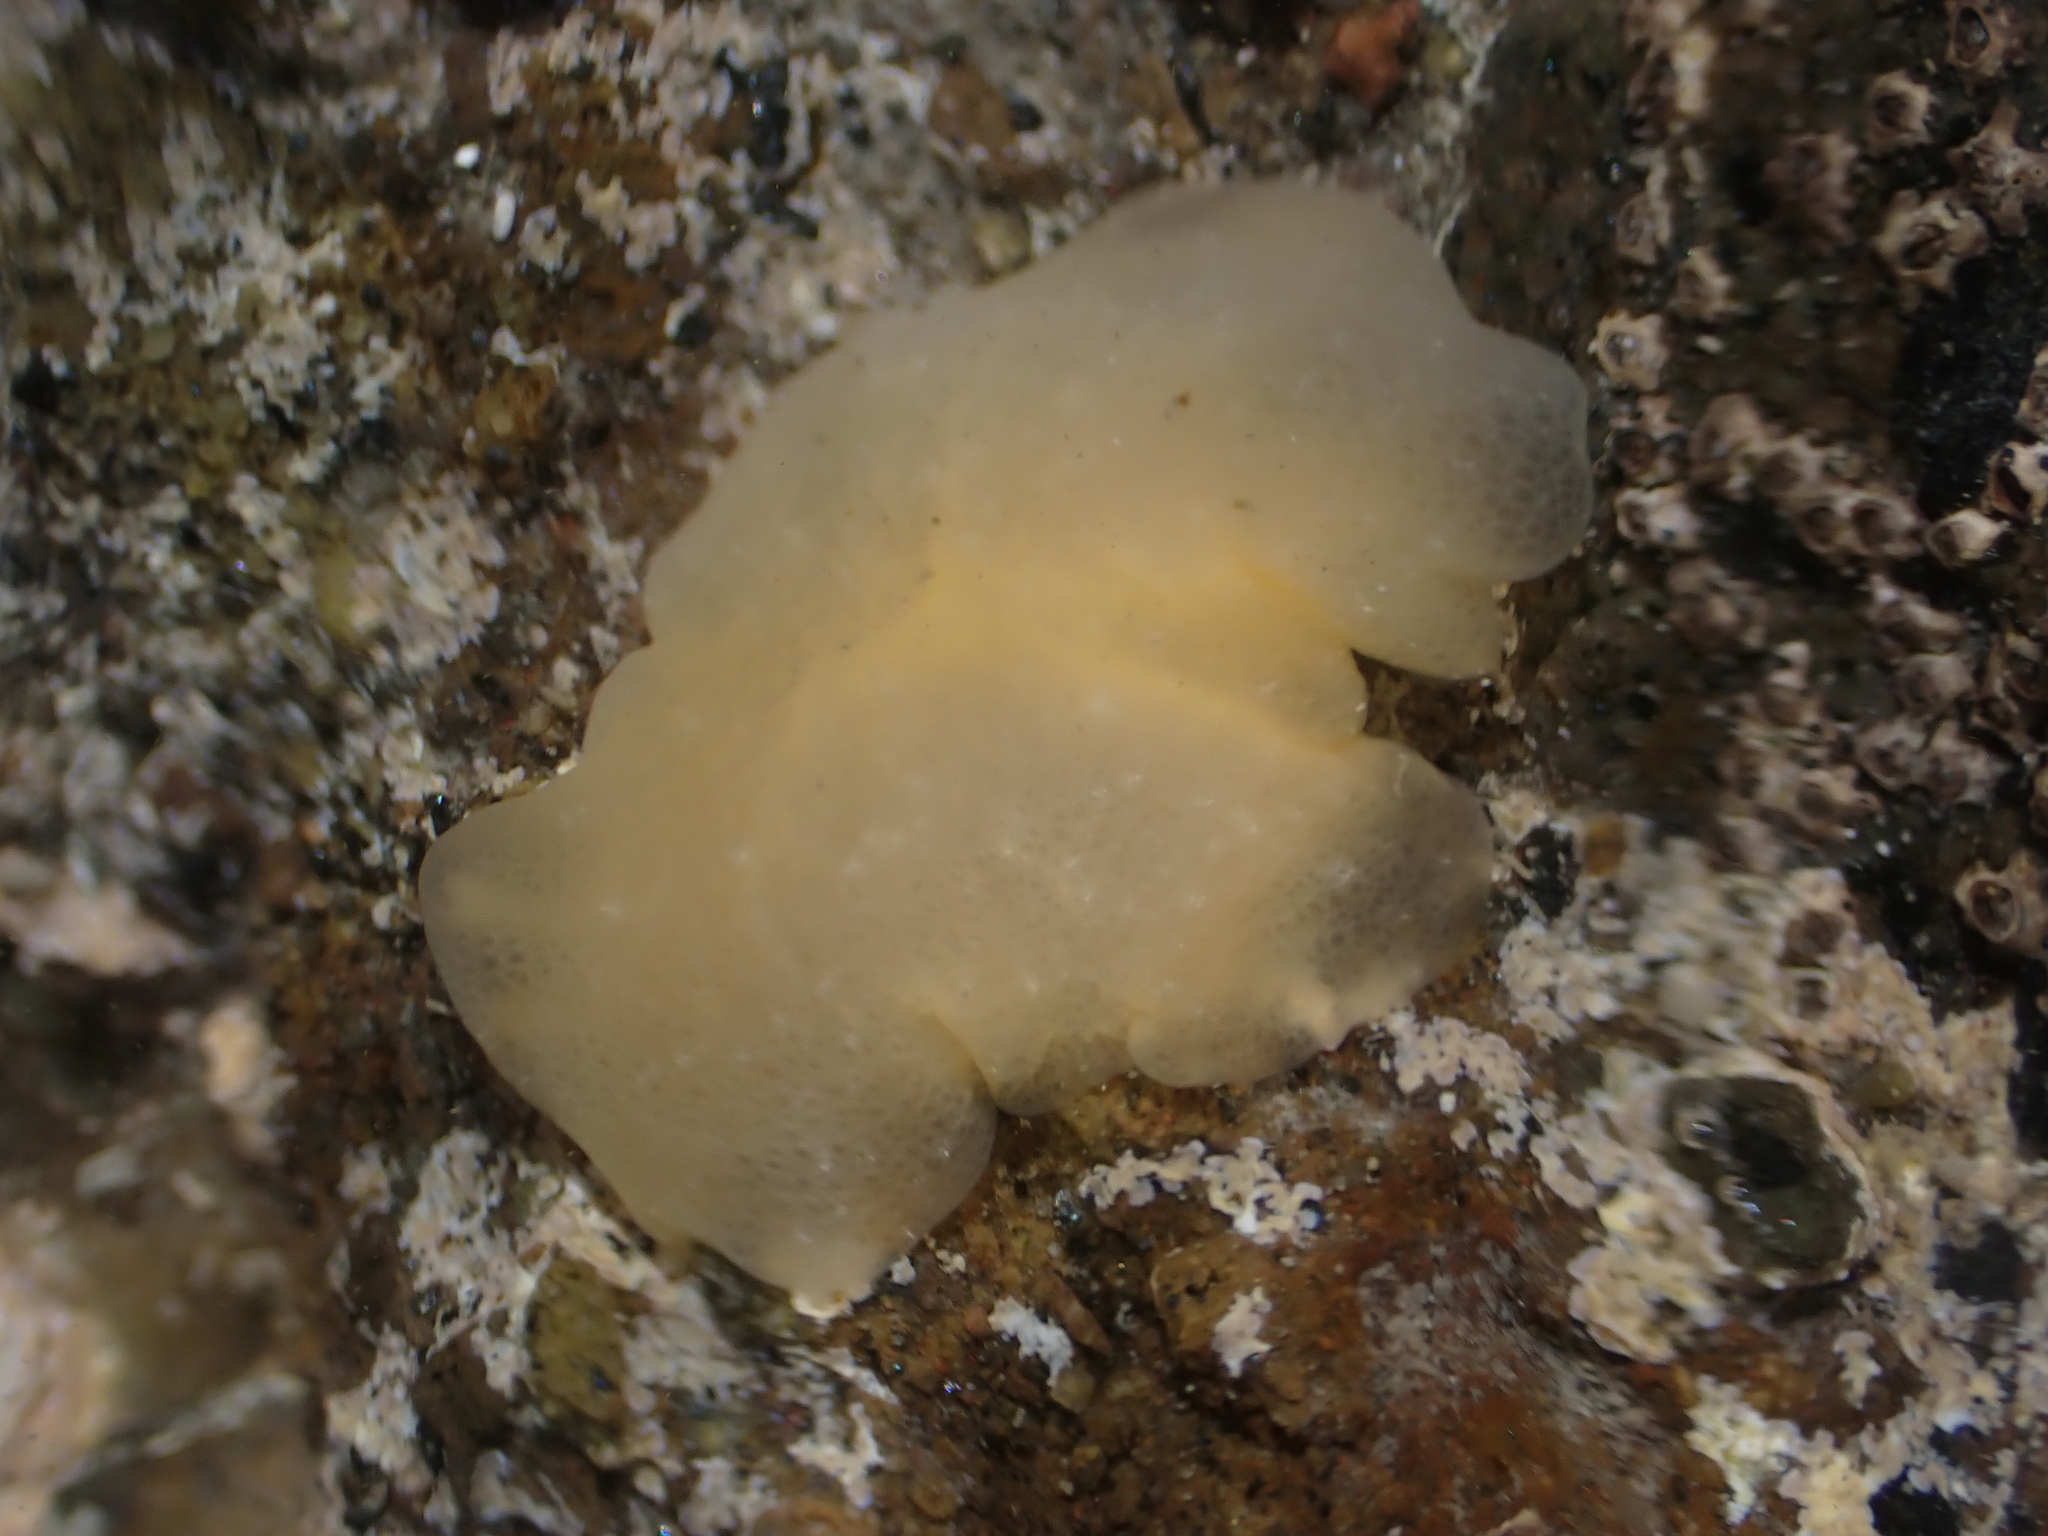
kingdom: Animalia
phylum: Mollusca
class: Gastropoda
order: Pleurobranchida
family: Pleurobranchidae
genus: Berthella
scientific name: Berthella medietas
